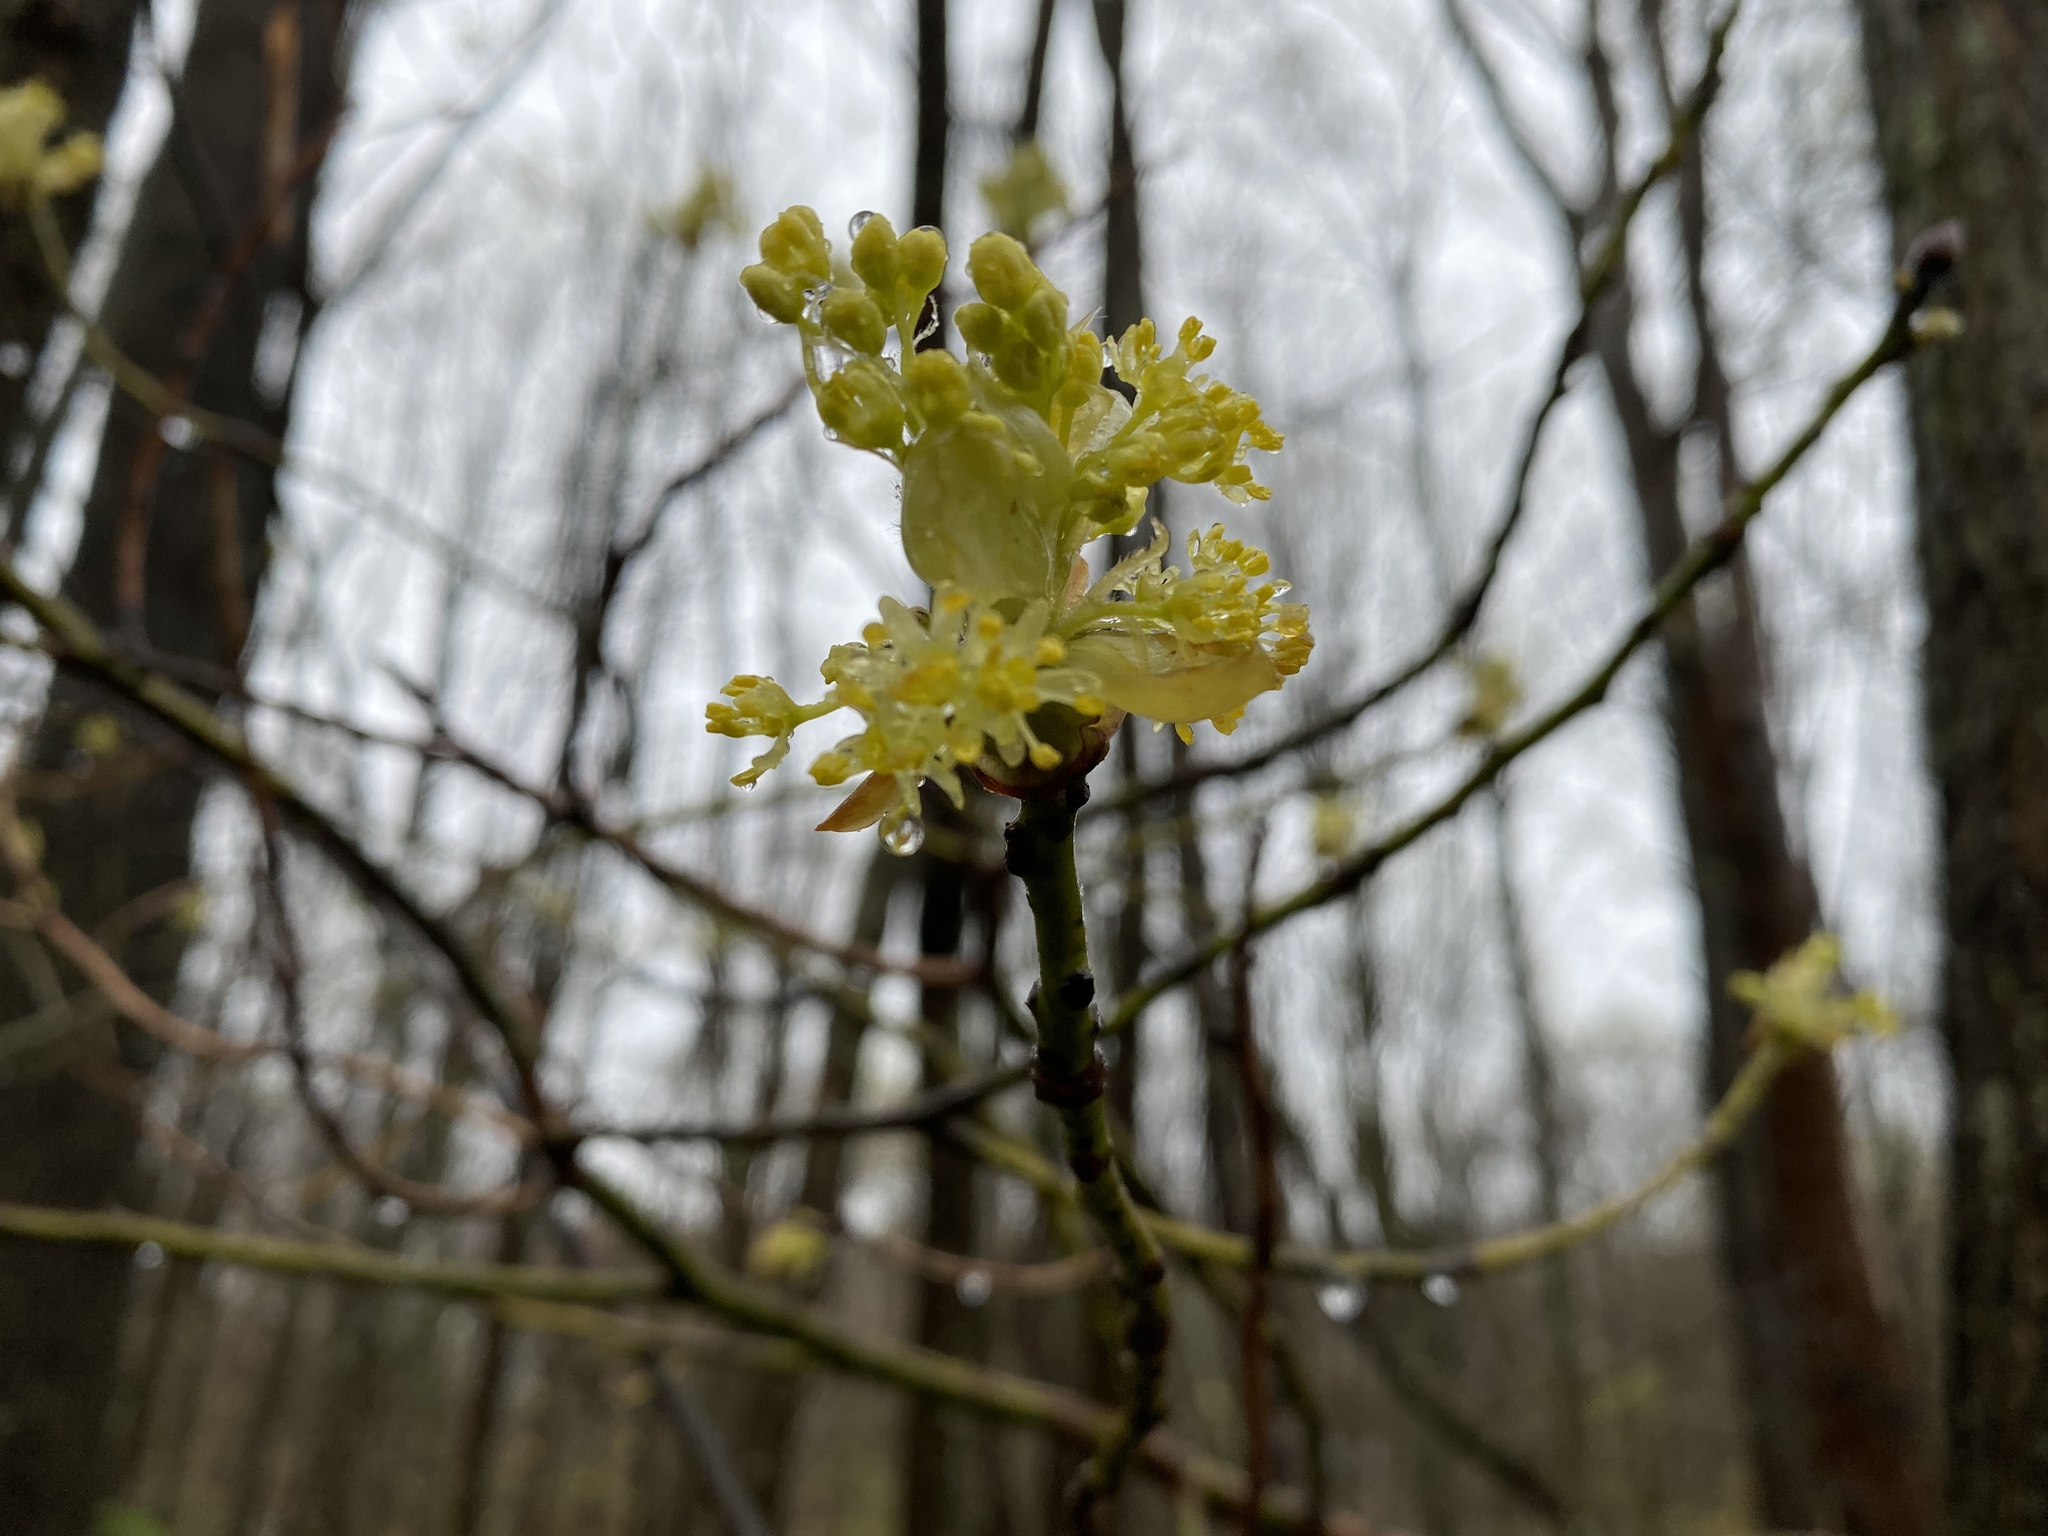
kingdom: Plantae
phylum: Tracheophyta
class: Magnoliopsida
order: Laurales
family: Lauraceae
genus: Sassafras
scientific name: Sassafras albidum
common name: Sassafras
